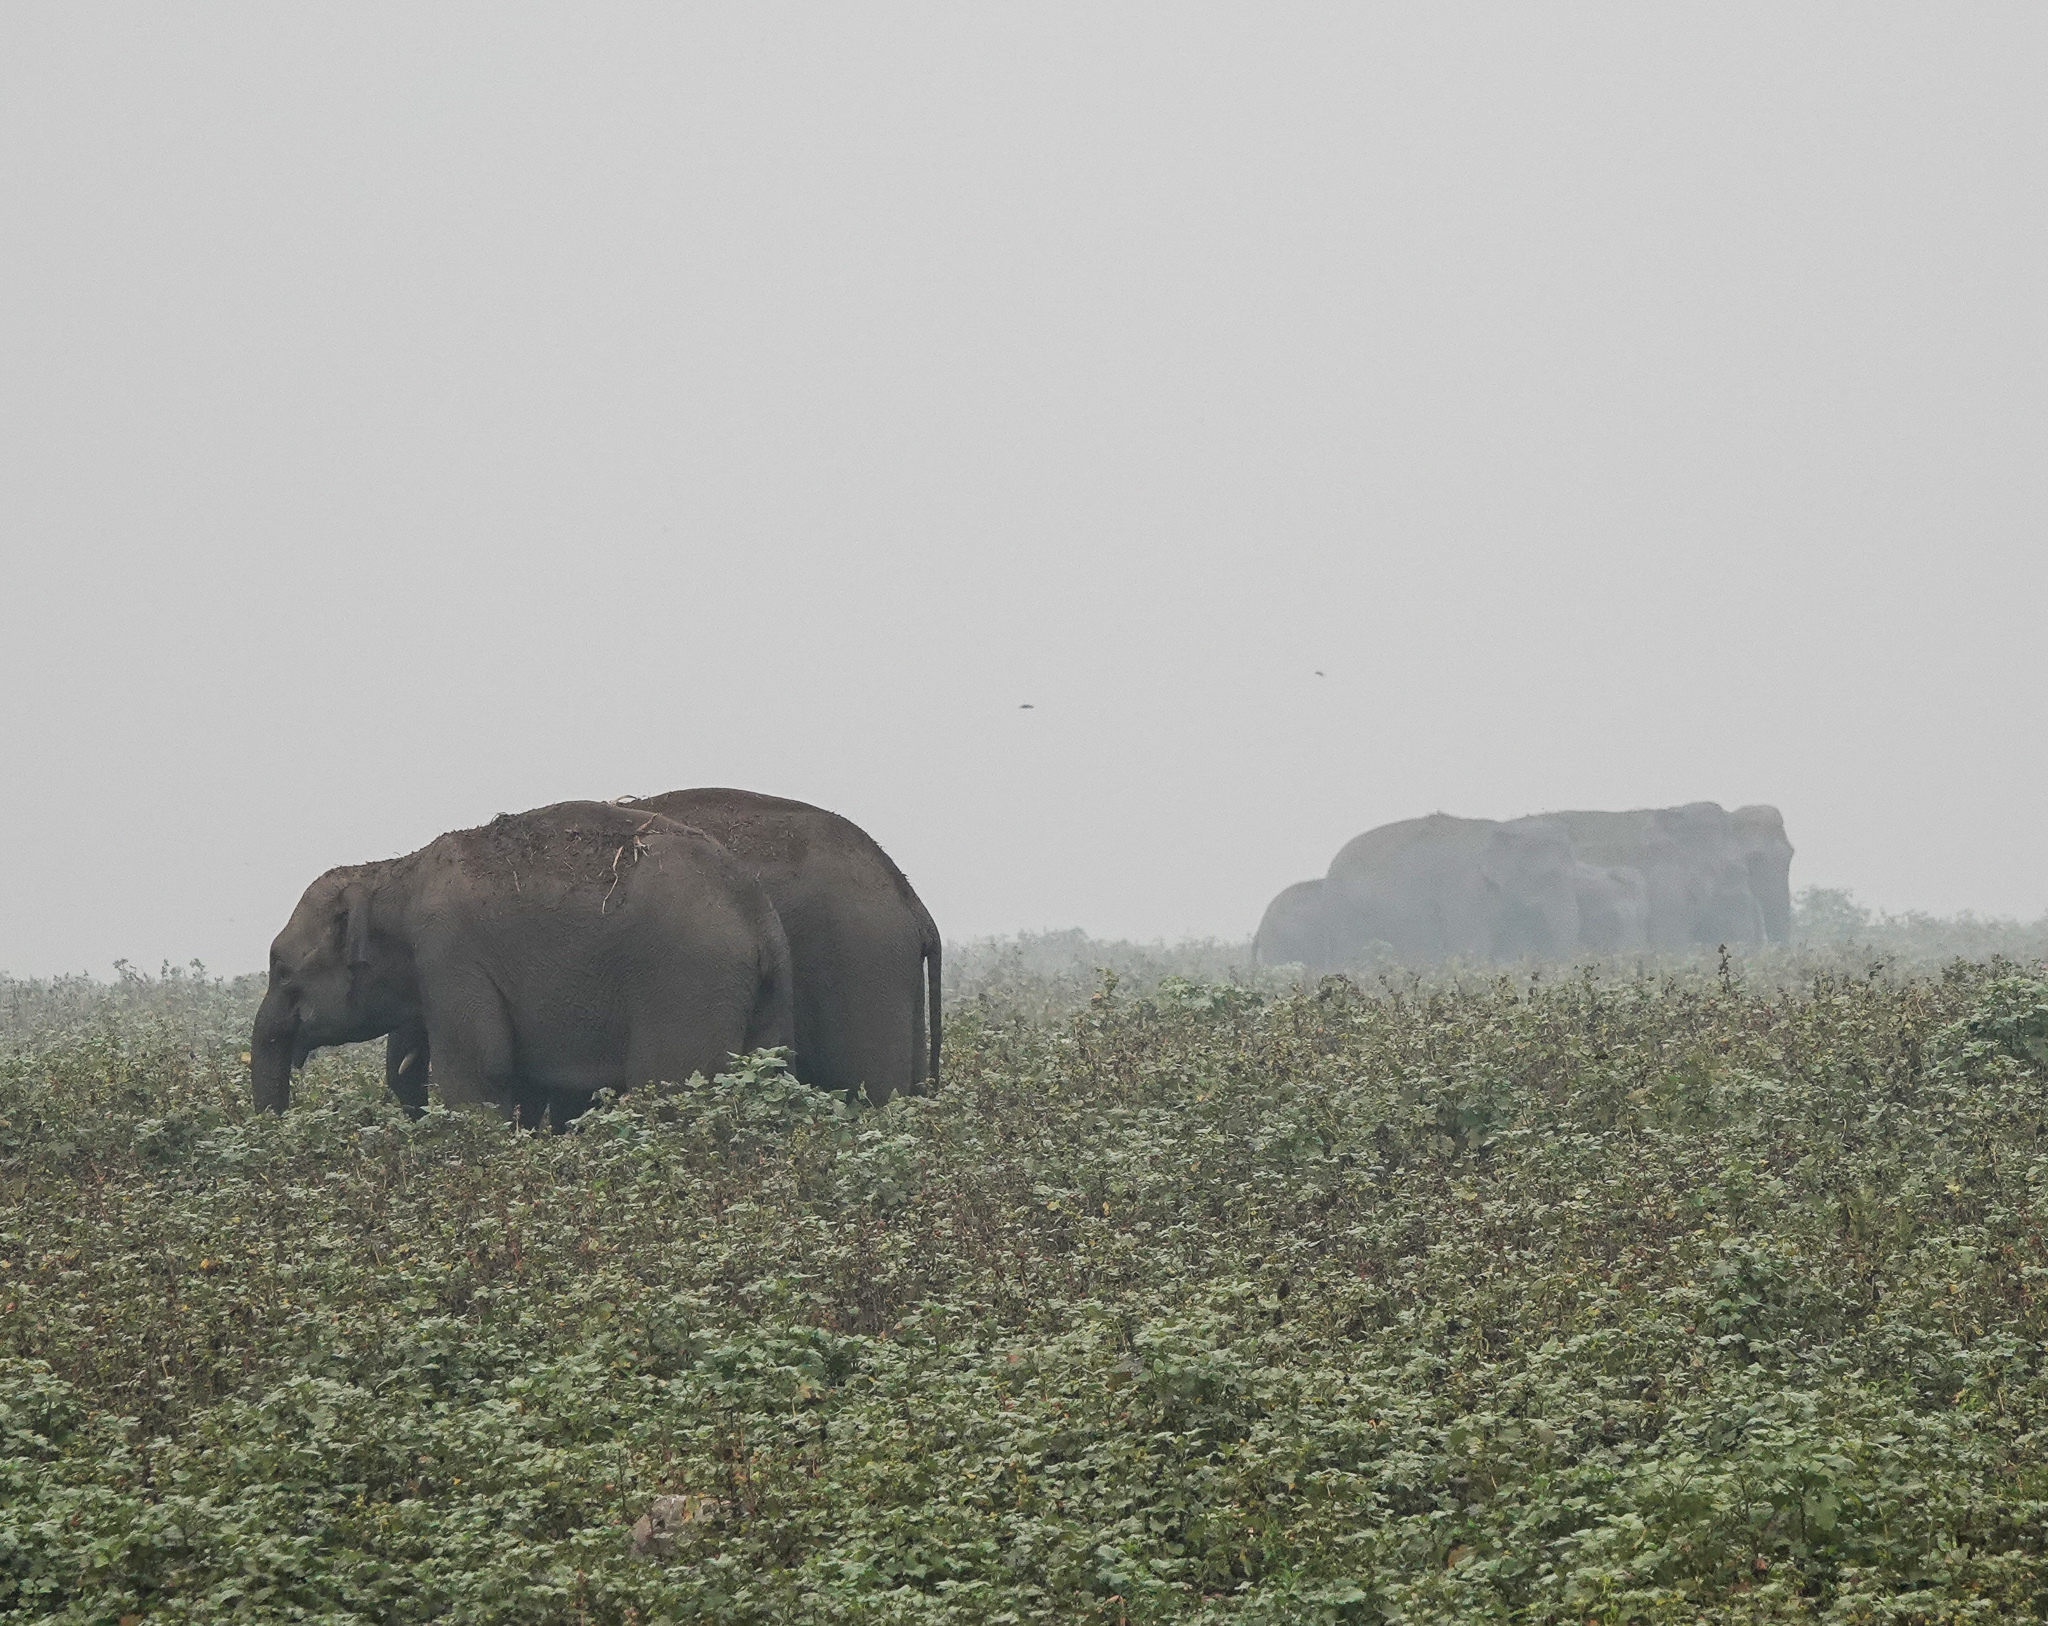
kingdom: Animalia
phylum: Chordata
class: Mammalia
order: Proboscidea
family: Elephantidae
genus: Elephas
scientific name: Elephas maximus
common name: Asian elephant
